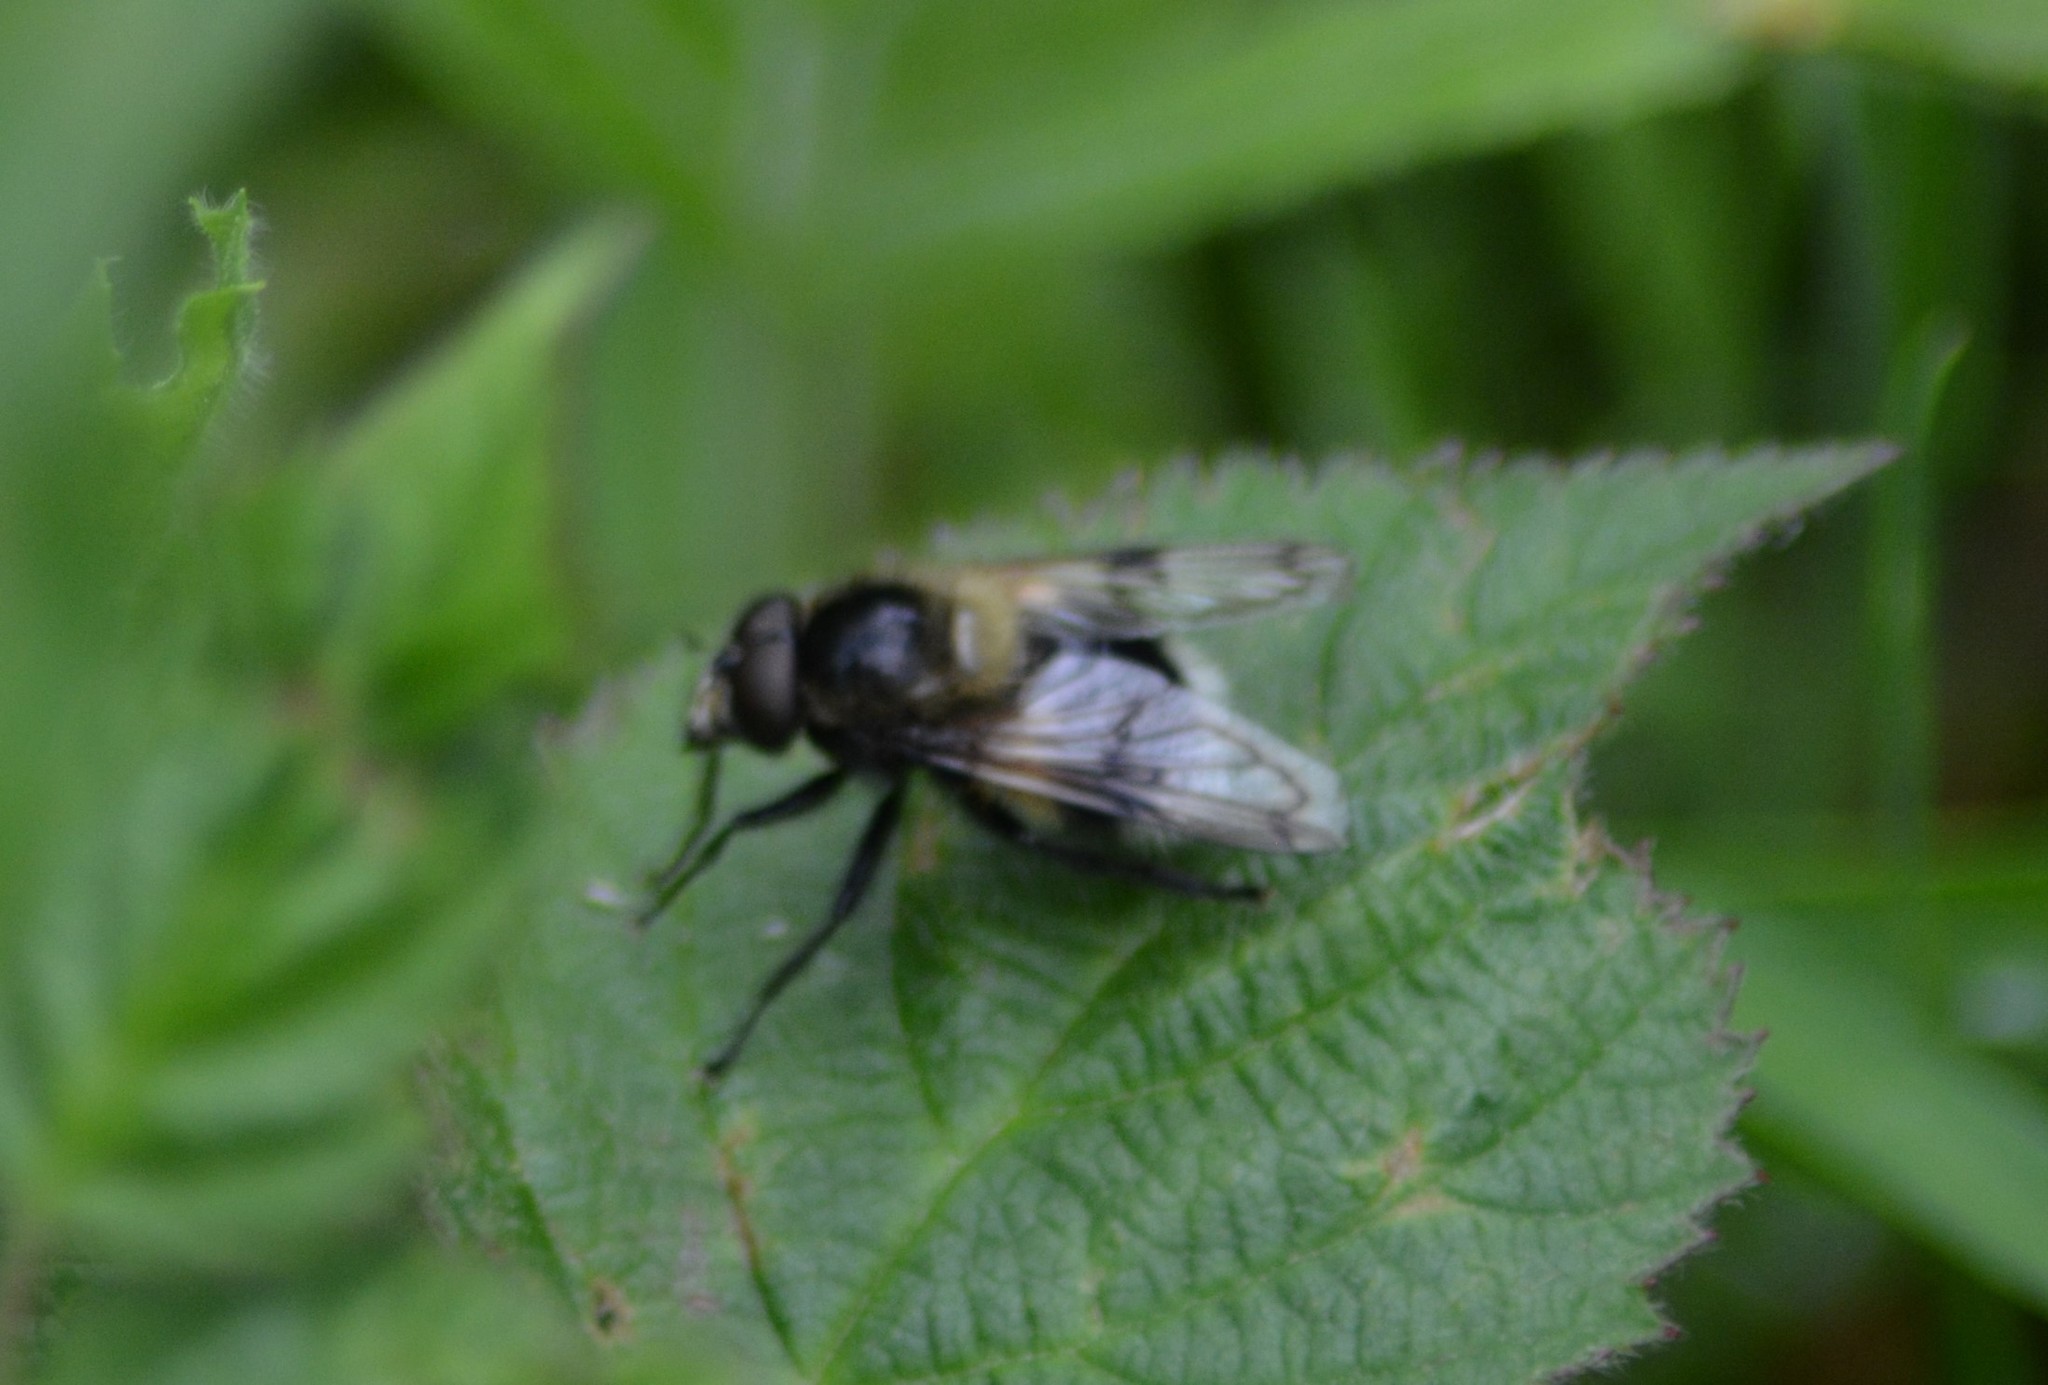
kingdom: Animalia
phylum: Arthropoda
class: Insecta
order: Diptera
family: Syrphidae
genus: Volucella
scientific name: Volucella bombylans
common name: Bumble bee hover fly
